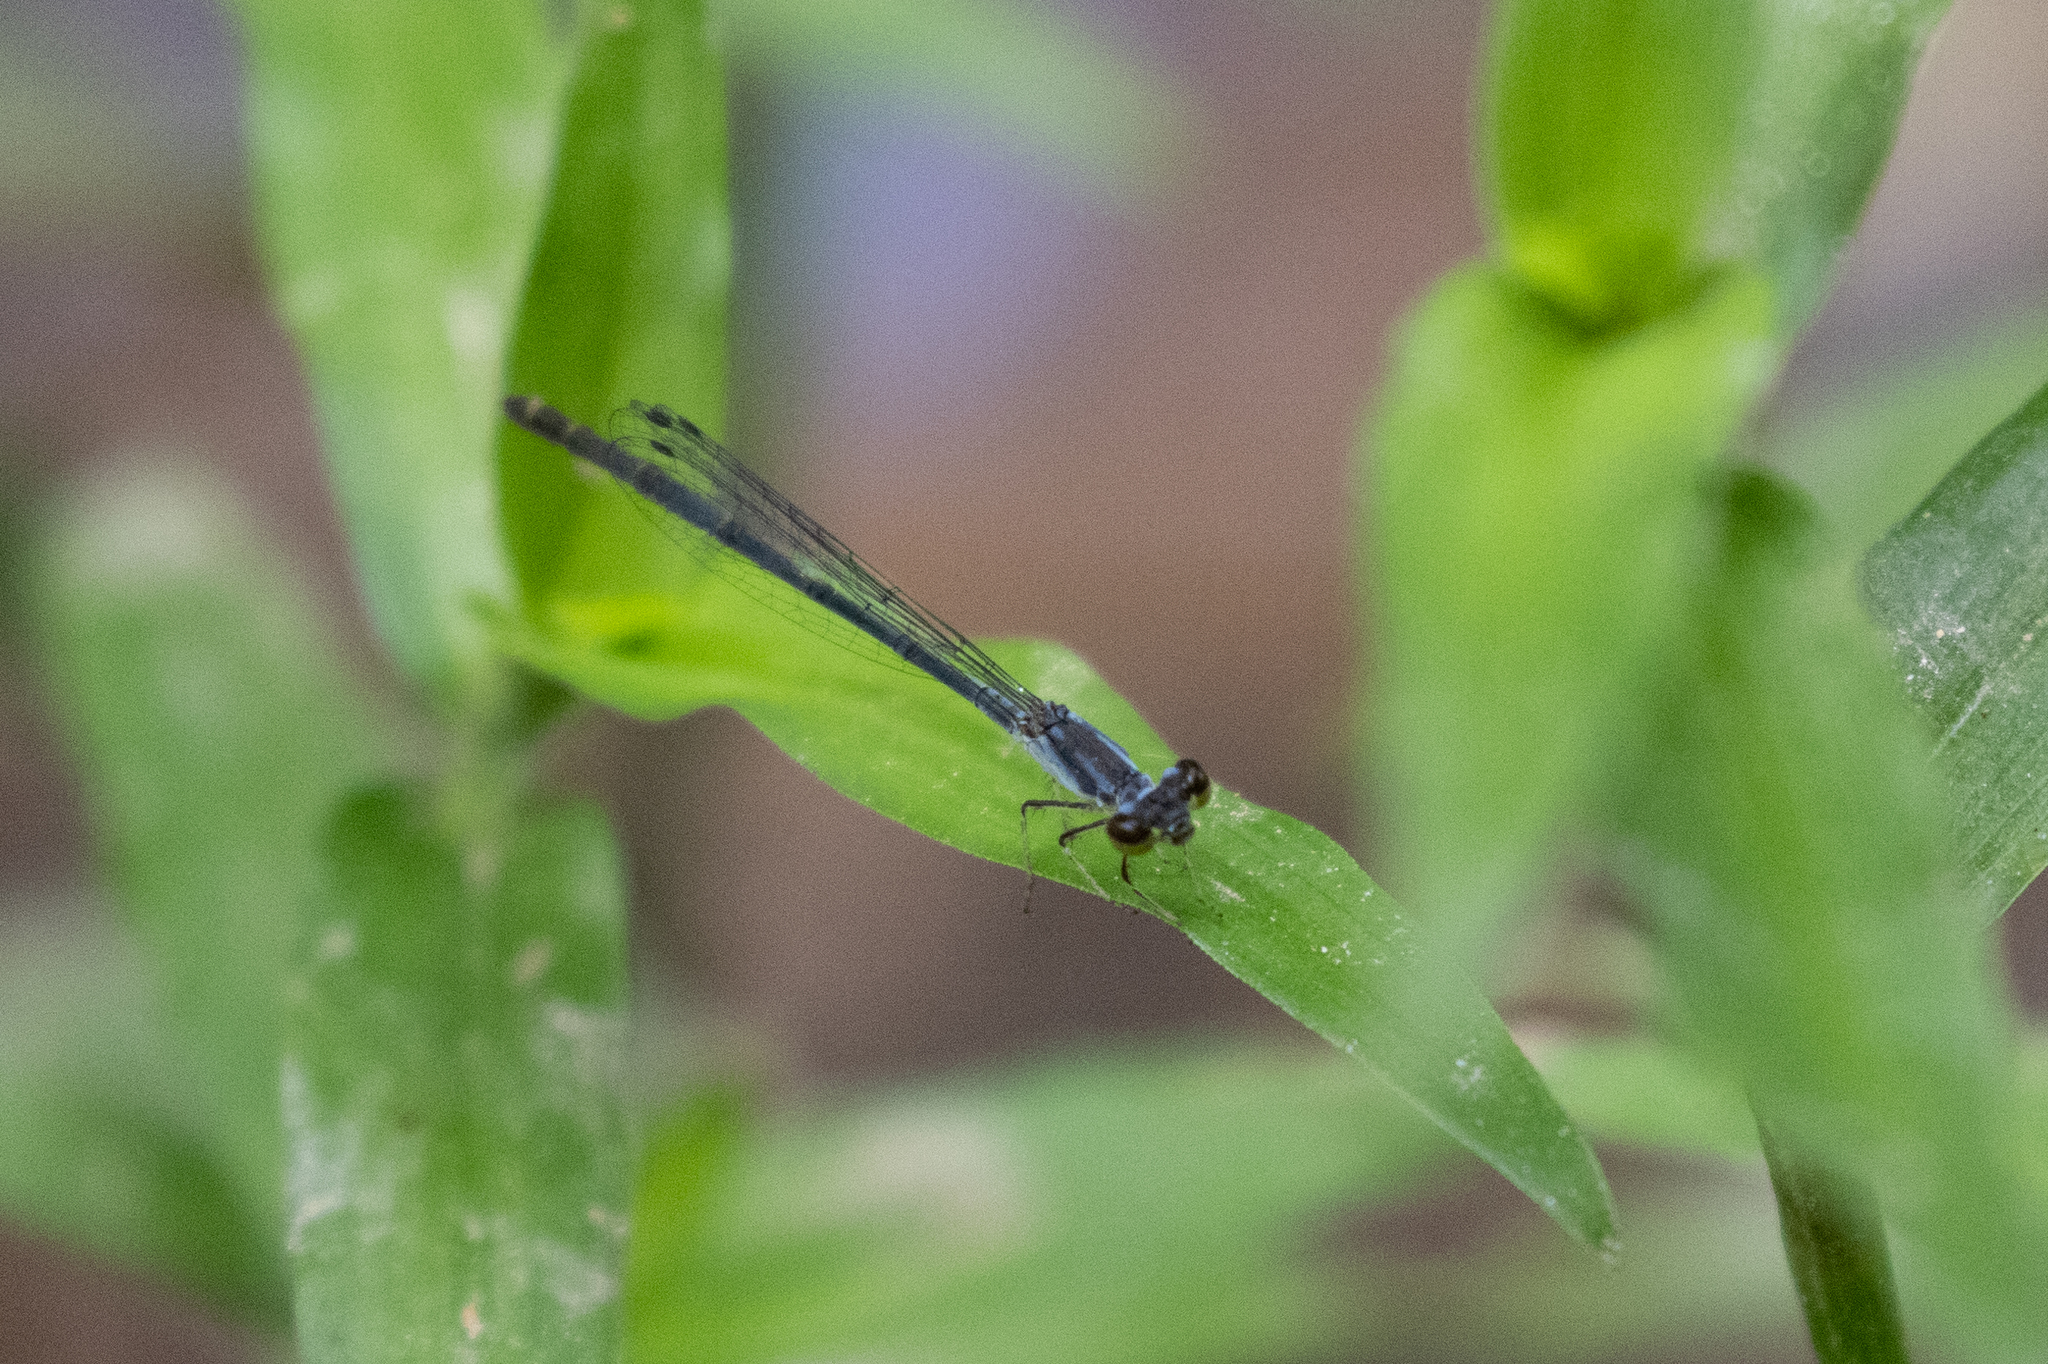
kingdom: Animalia
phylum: Arthropoda
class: Insecta
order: Odonata
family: Coenagrionidae
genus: Ischnura
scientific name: Ischnura posita
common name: Fragile forktail
